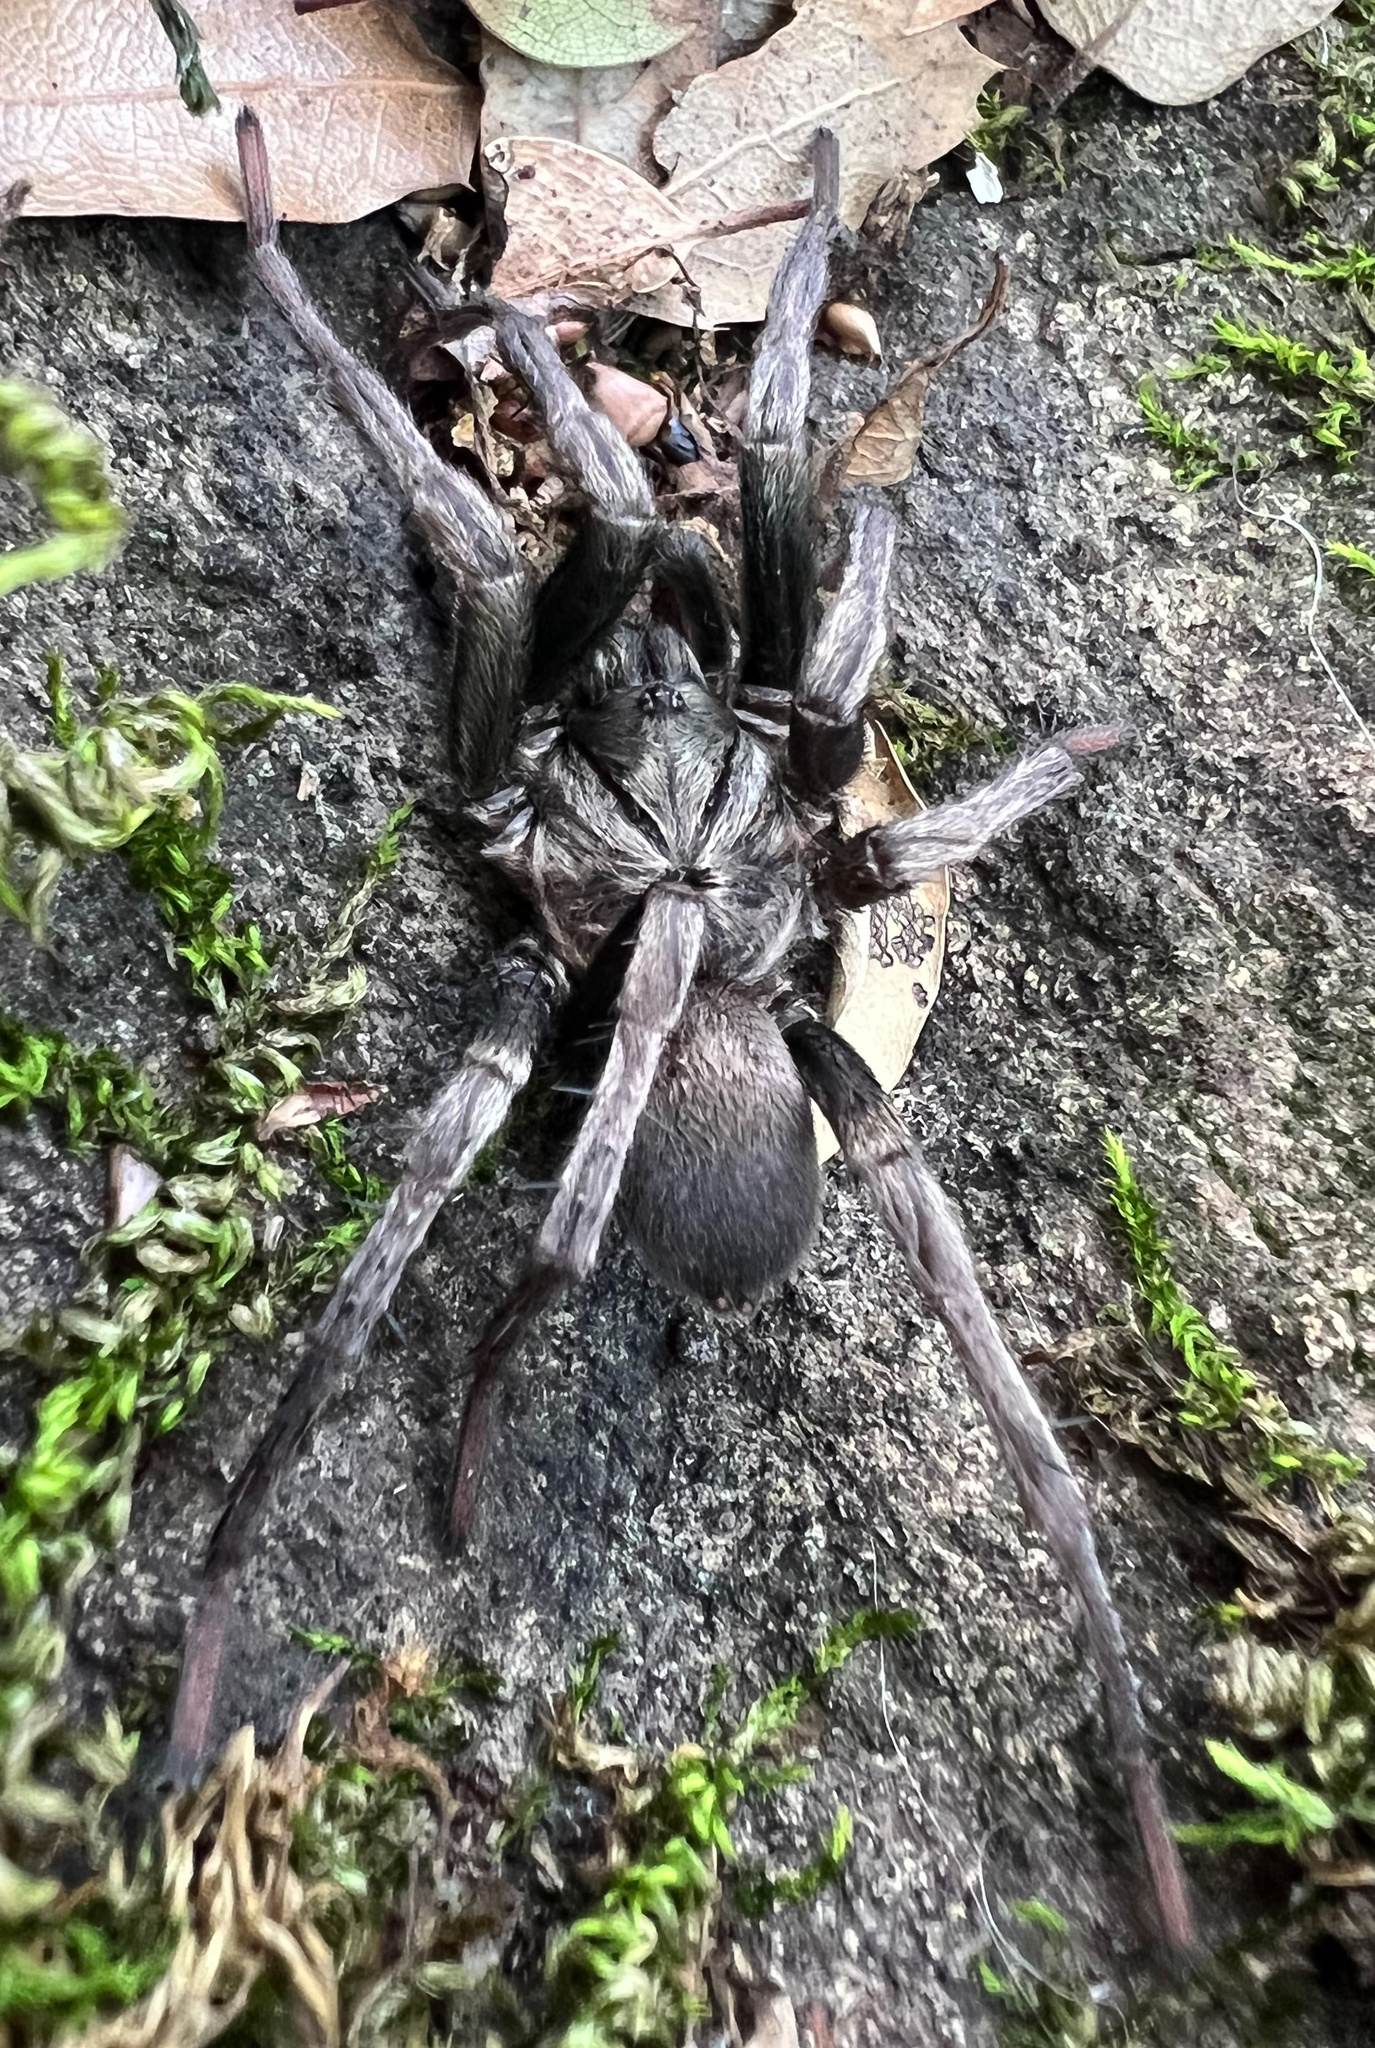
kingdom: Animalia
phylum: Arthropoda
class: Arachnida
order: Araneae
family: Nemesiidae
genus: Calisoga
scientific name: Calisoga longitarsis
